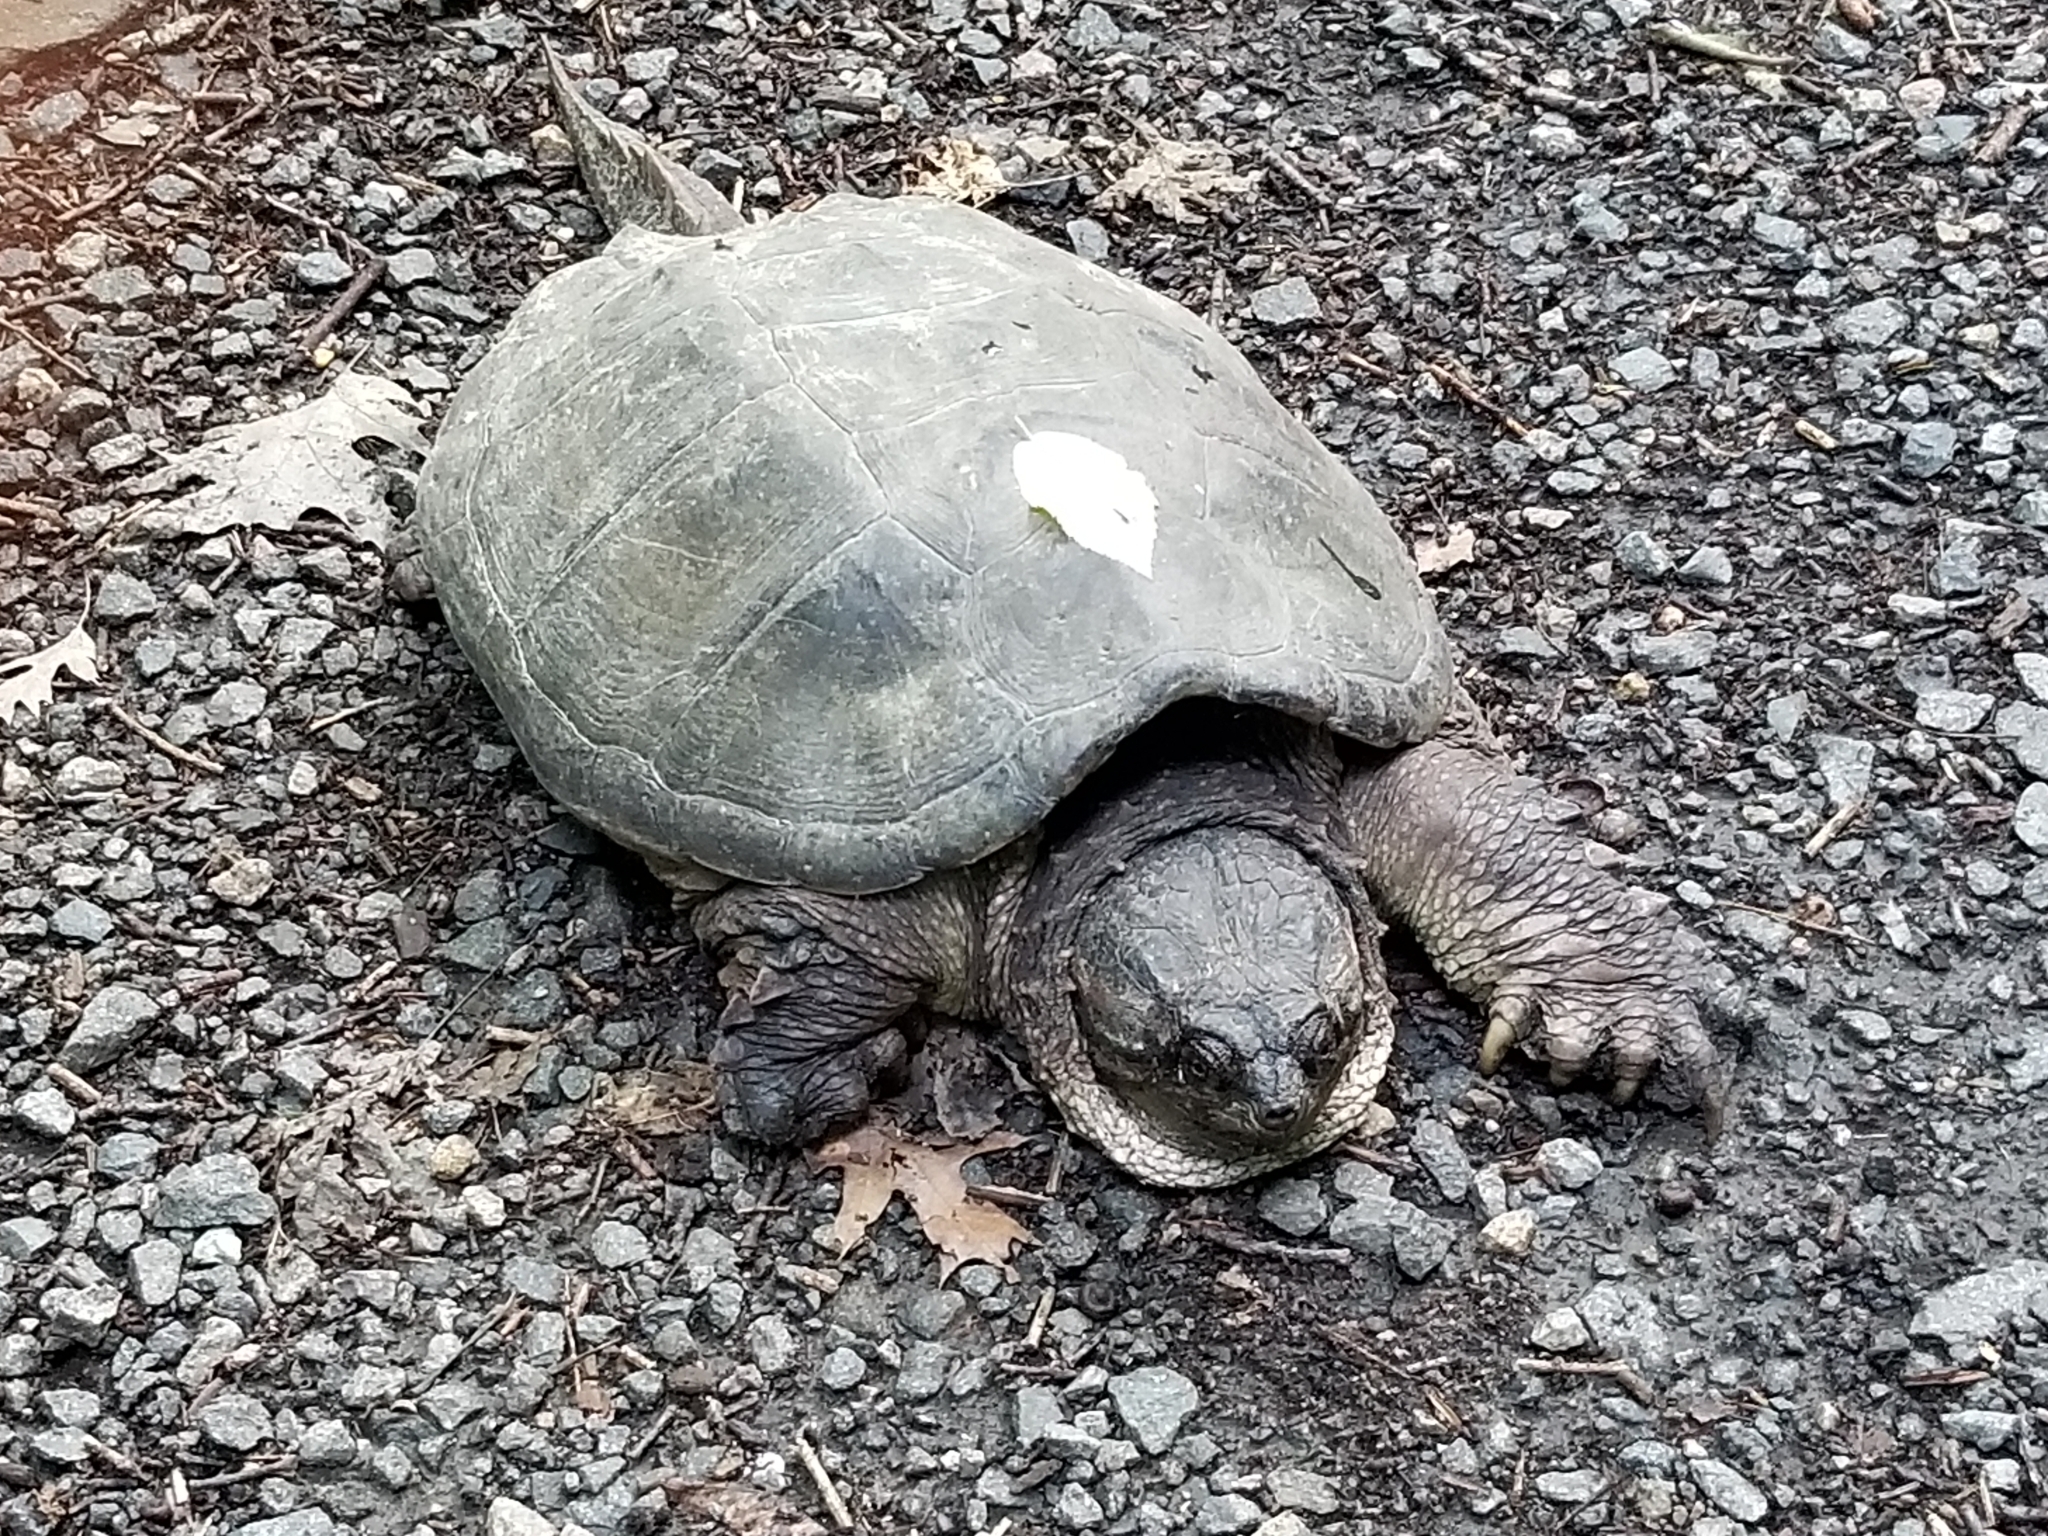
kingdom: Animalia
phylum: Chordata
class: Testudines
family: Chelydridae
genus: Chelydra
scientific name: Chelydra serpentina
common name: Common snapping turtle
